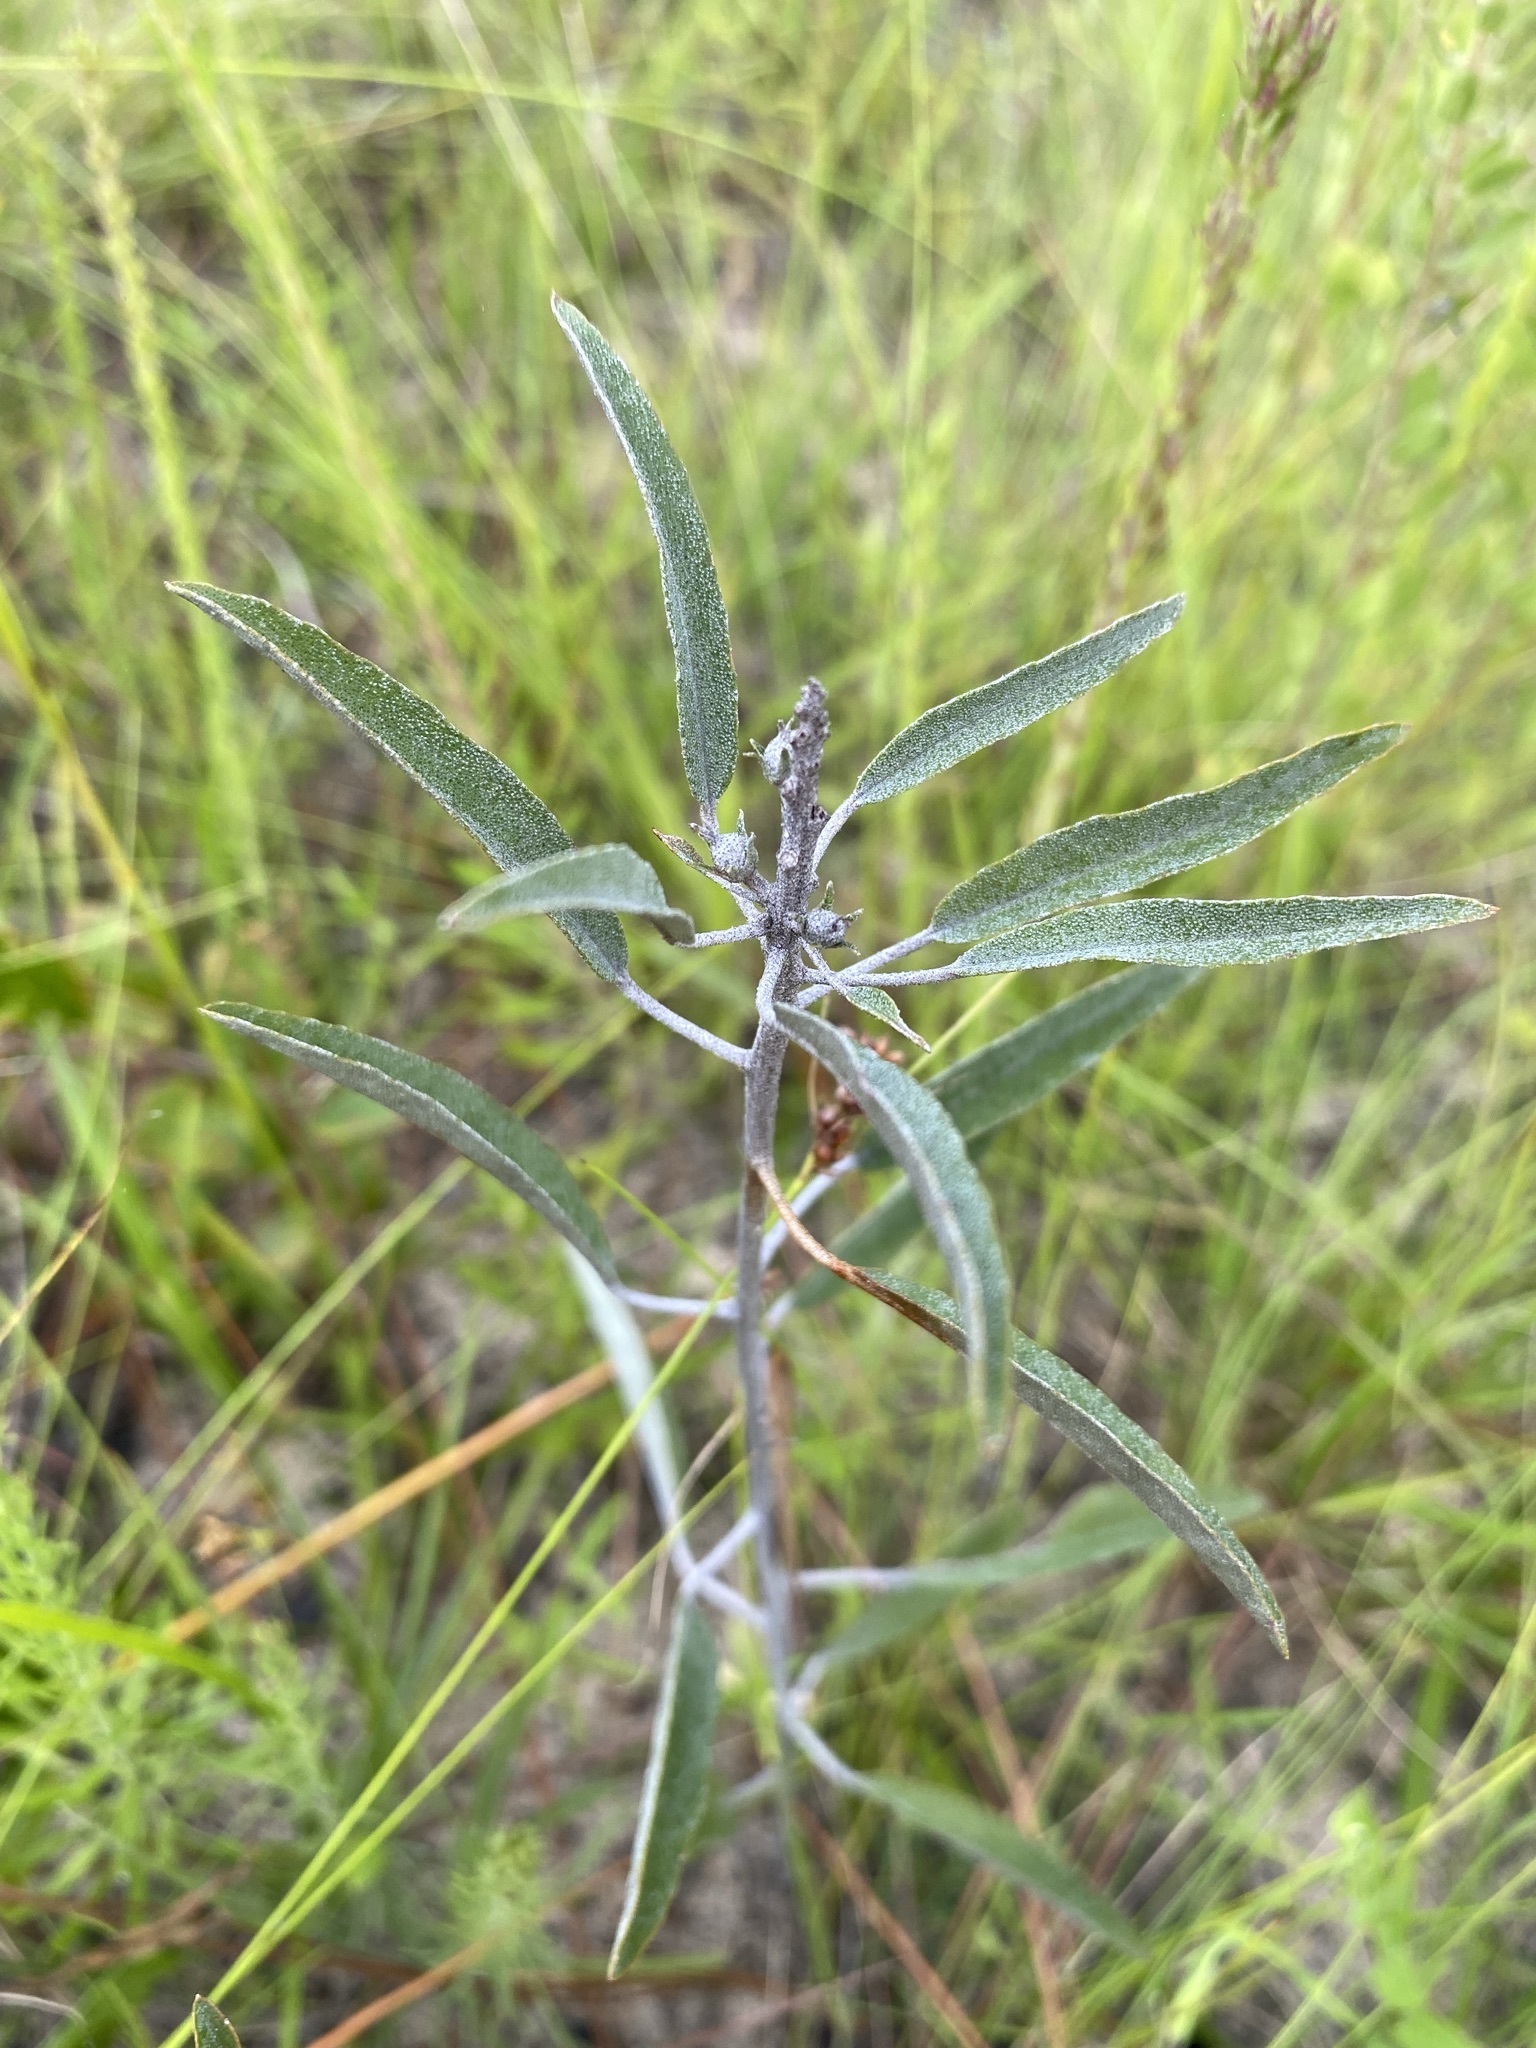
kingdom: Plantae
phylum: Tracheophyta
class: Magnoliopsida
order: Malpighiales
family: Euphorbiaceae
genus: Croton
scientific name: Croton argyranthemus
